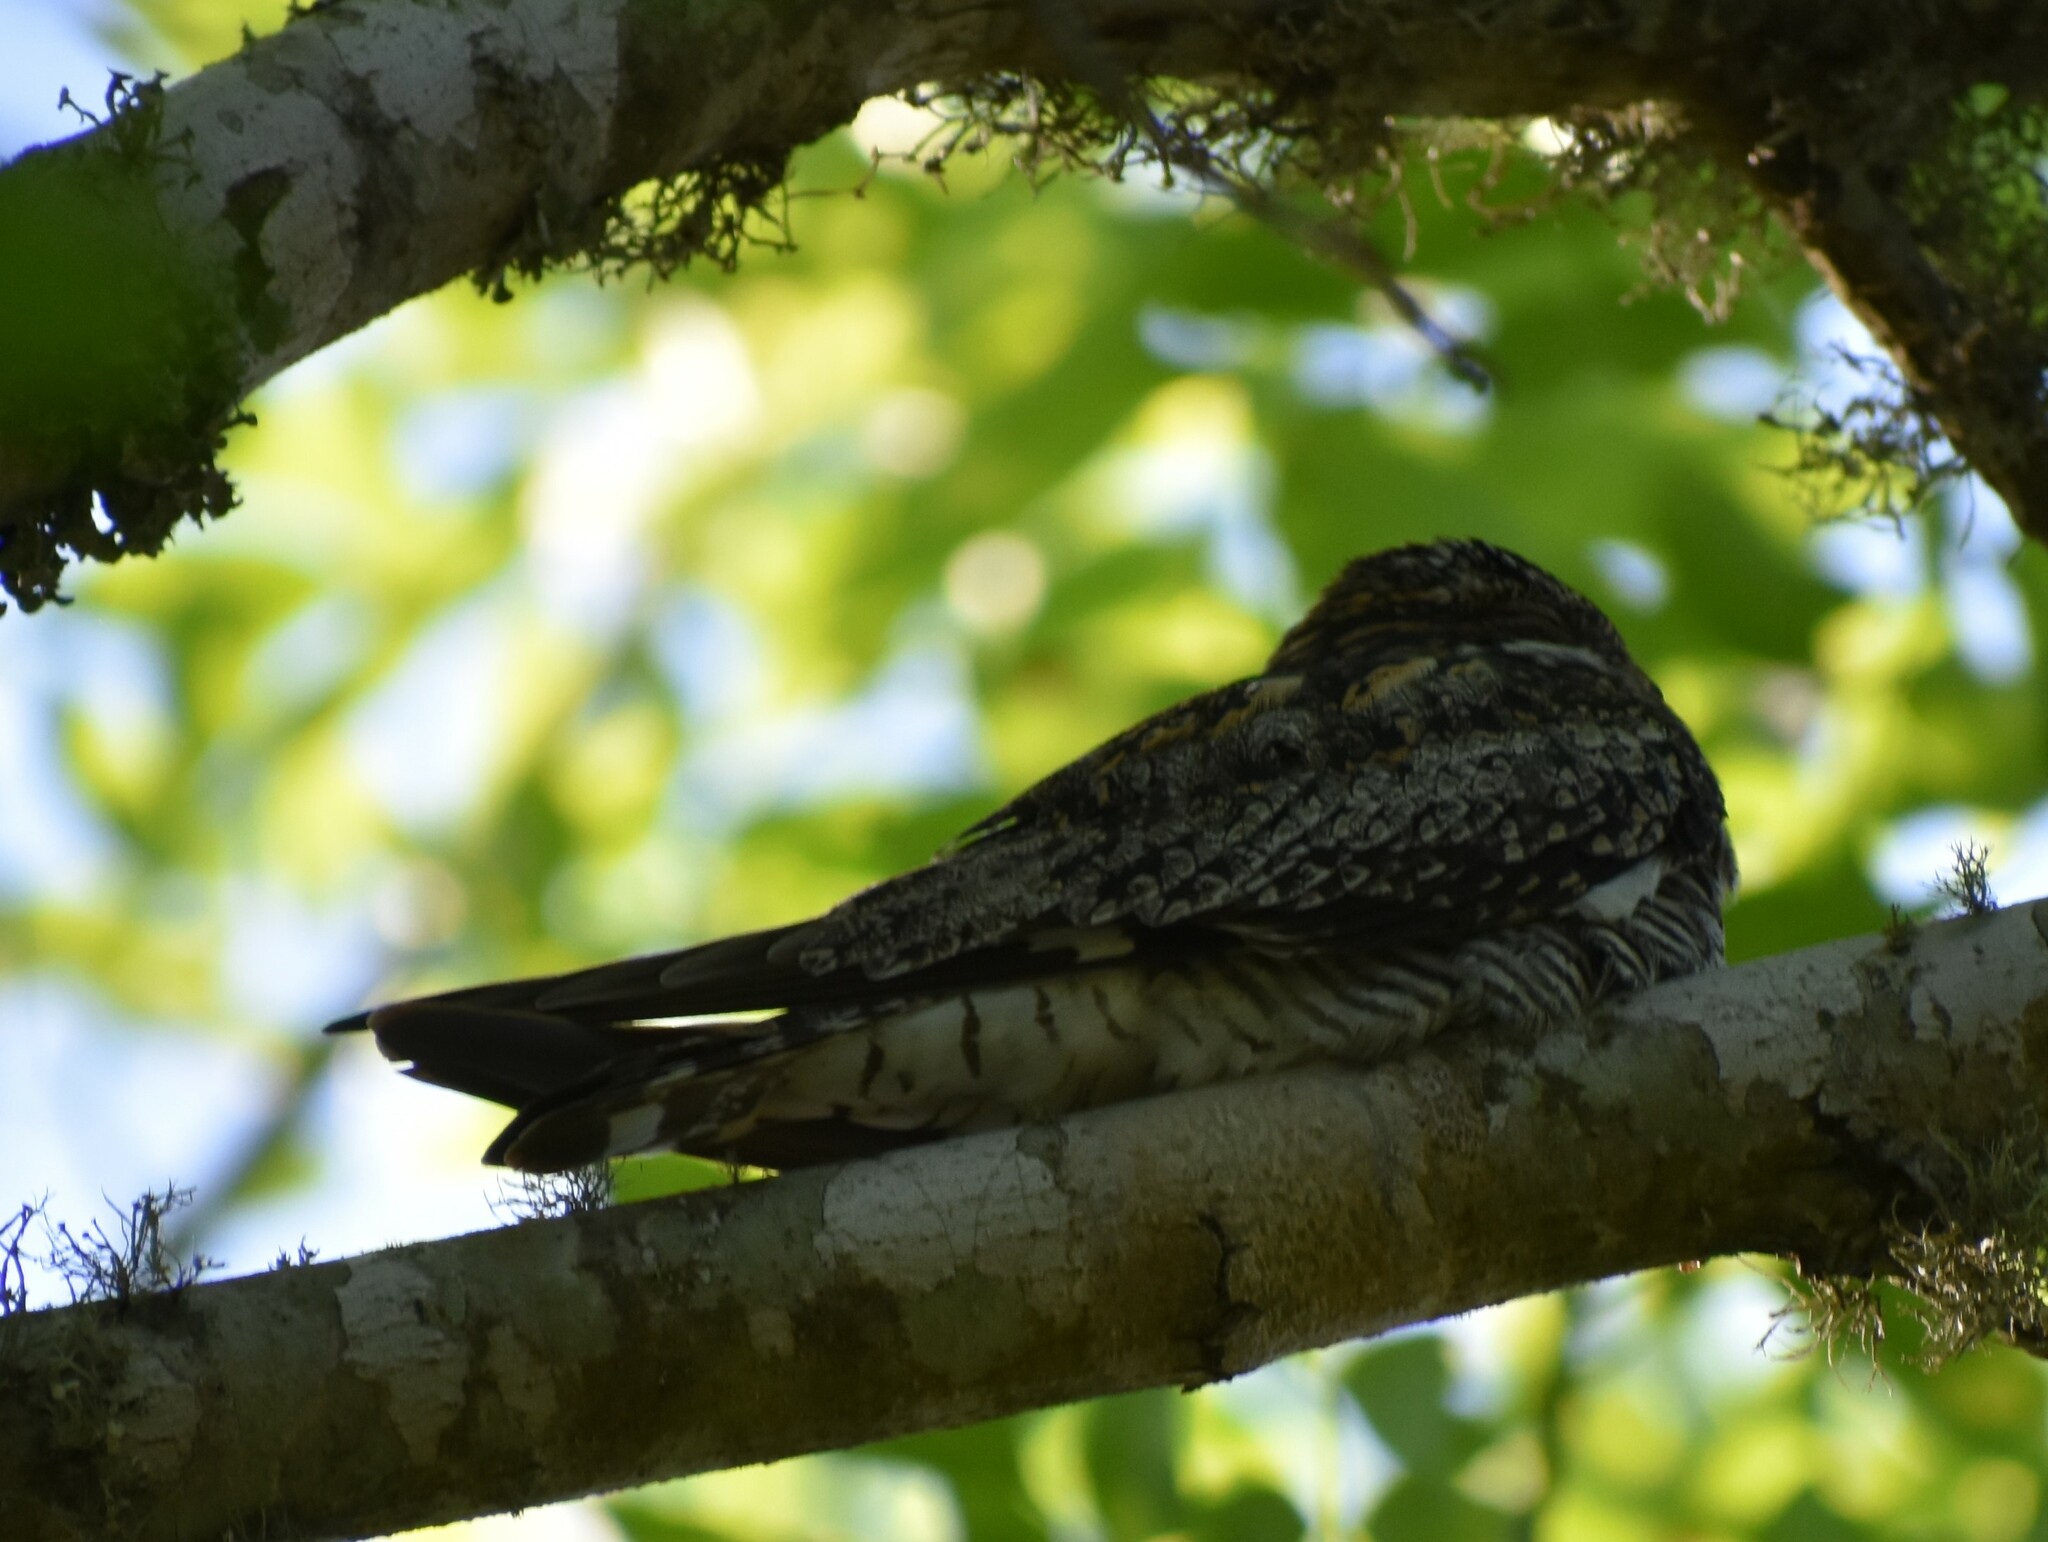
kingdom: Animalia
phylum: Chordata
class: Aves
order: Caprimulgiformes
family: Caprimulgidae
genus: Chordeiles
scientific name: Chordeiles minor
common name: Common nighthawk
